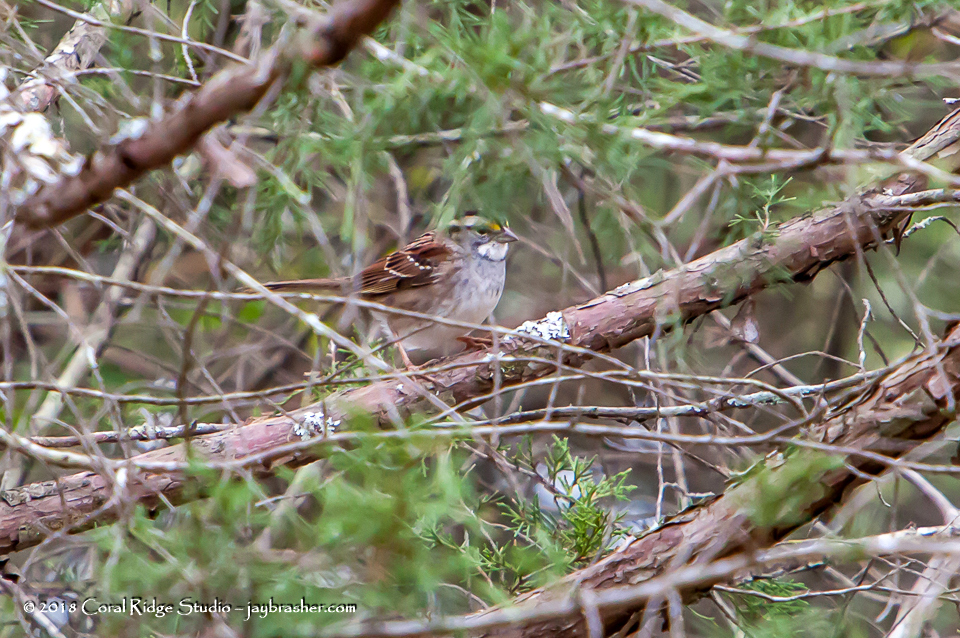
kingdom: Animalia
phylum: Chordata
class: Aves
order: Passeriformes
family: Passerellidae
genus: Zonotrichia
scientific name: Zonotrichia albicollis
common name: White-throated sparrow
